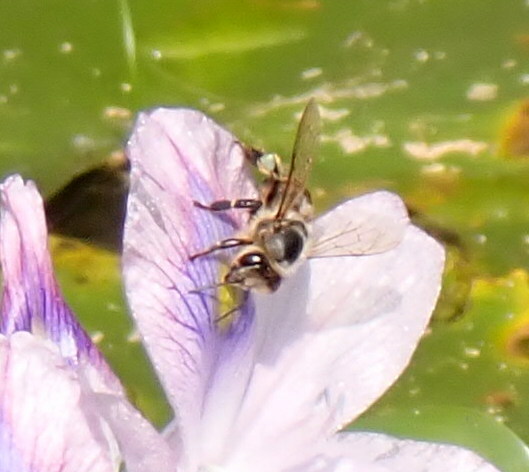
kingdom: Animalia
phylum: Arthropoda
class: Insecta
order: Hymenoptera
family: Apidae
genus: Apis
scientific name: Apis mellifera
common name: Honey bee
